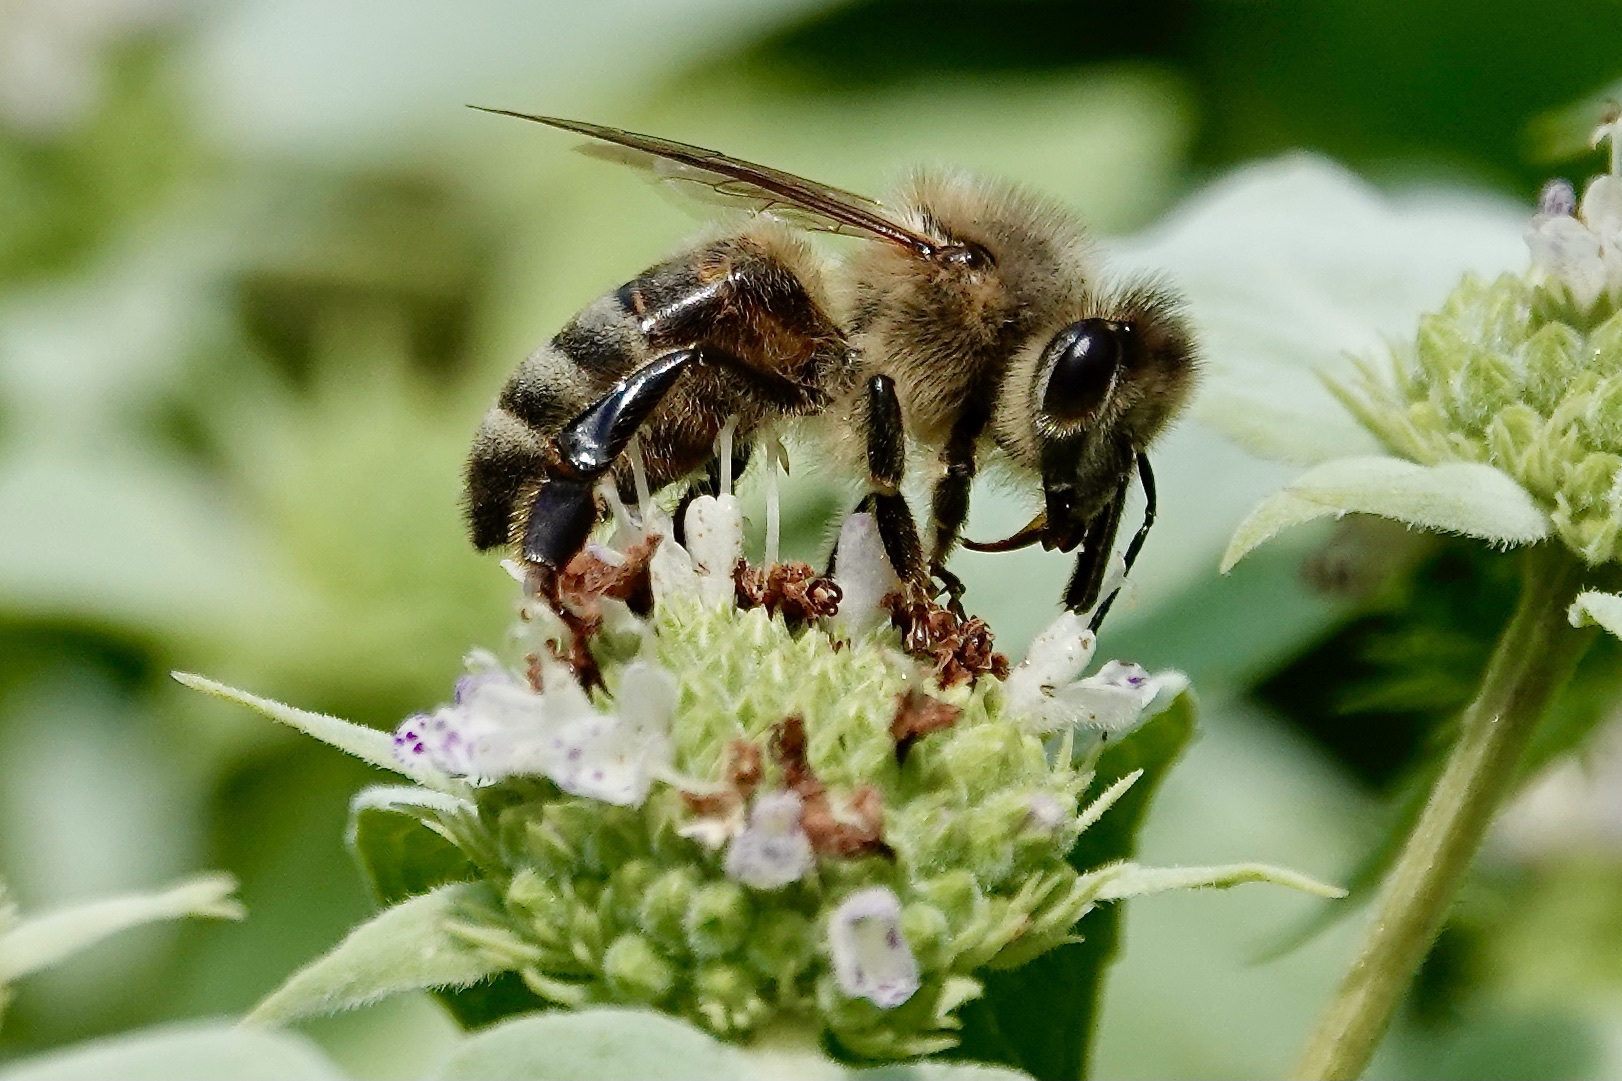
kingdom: Animalia
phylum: Arthropoda
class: Insecta
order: Hymenoptera
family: Apidae
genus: Apis
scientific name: Apis mellifera
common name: Honey bee
